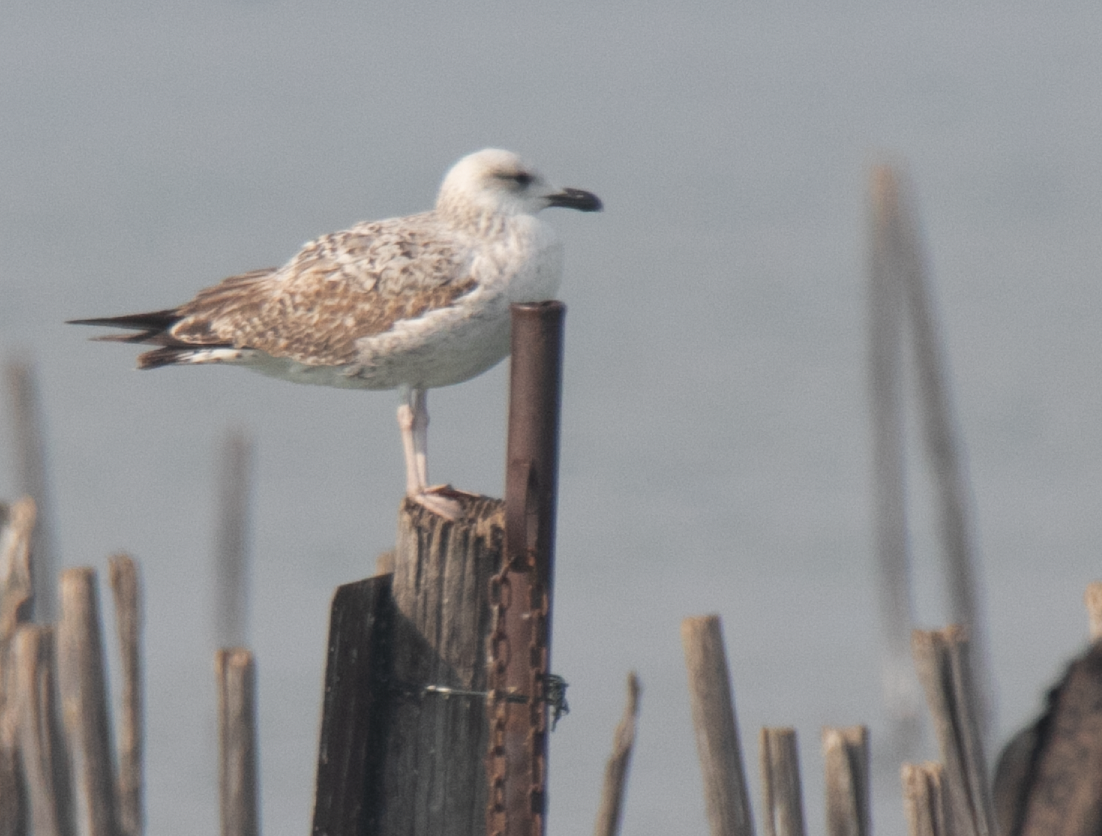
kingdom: Animalia
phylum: Chordata
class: Aves
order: Charadriiformes
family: Laridae
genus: Larus
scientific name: Larus michahellis
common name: Yellow-legged gull
